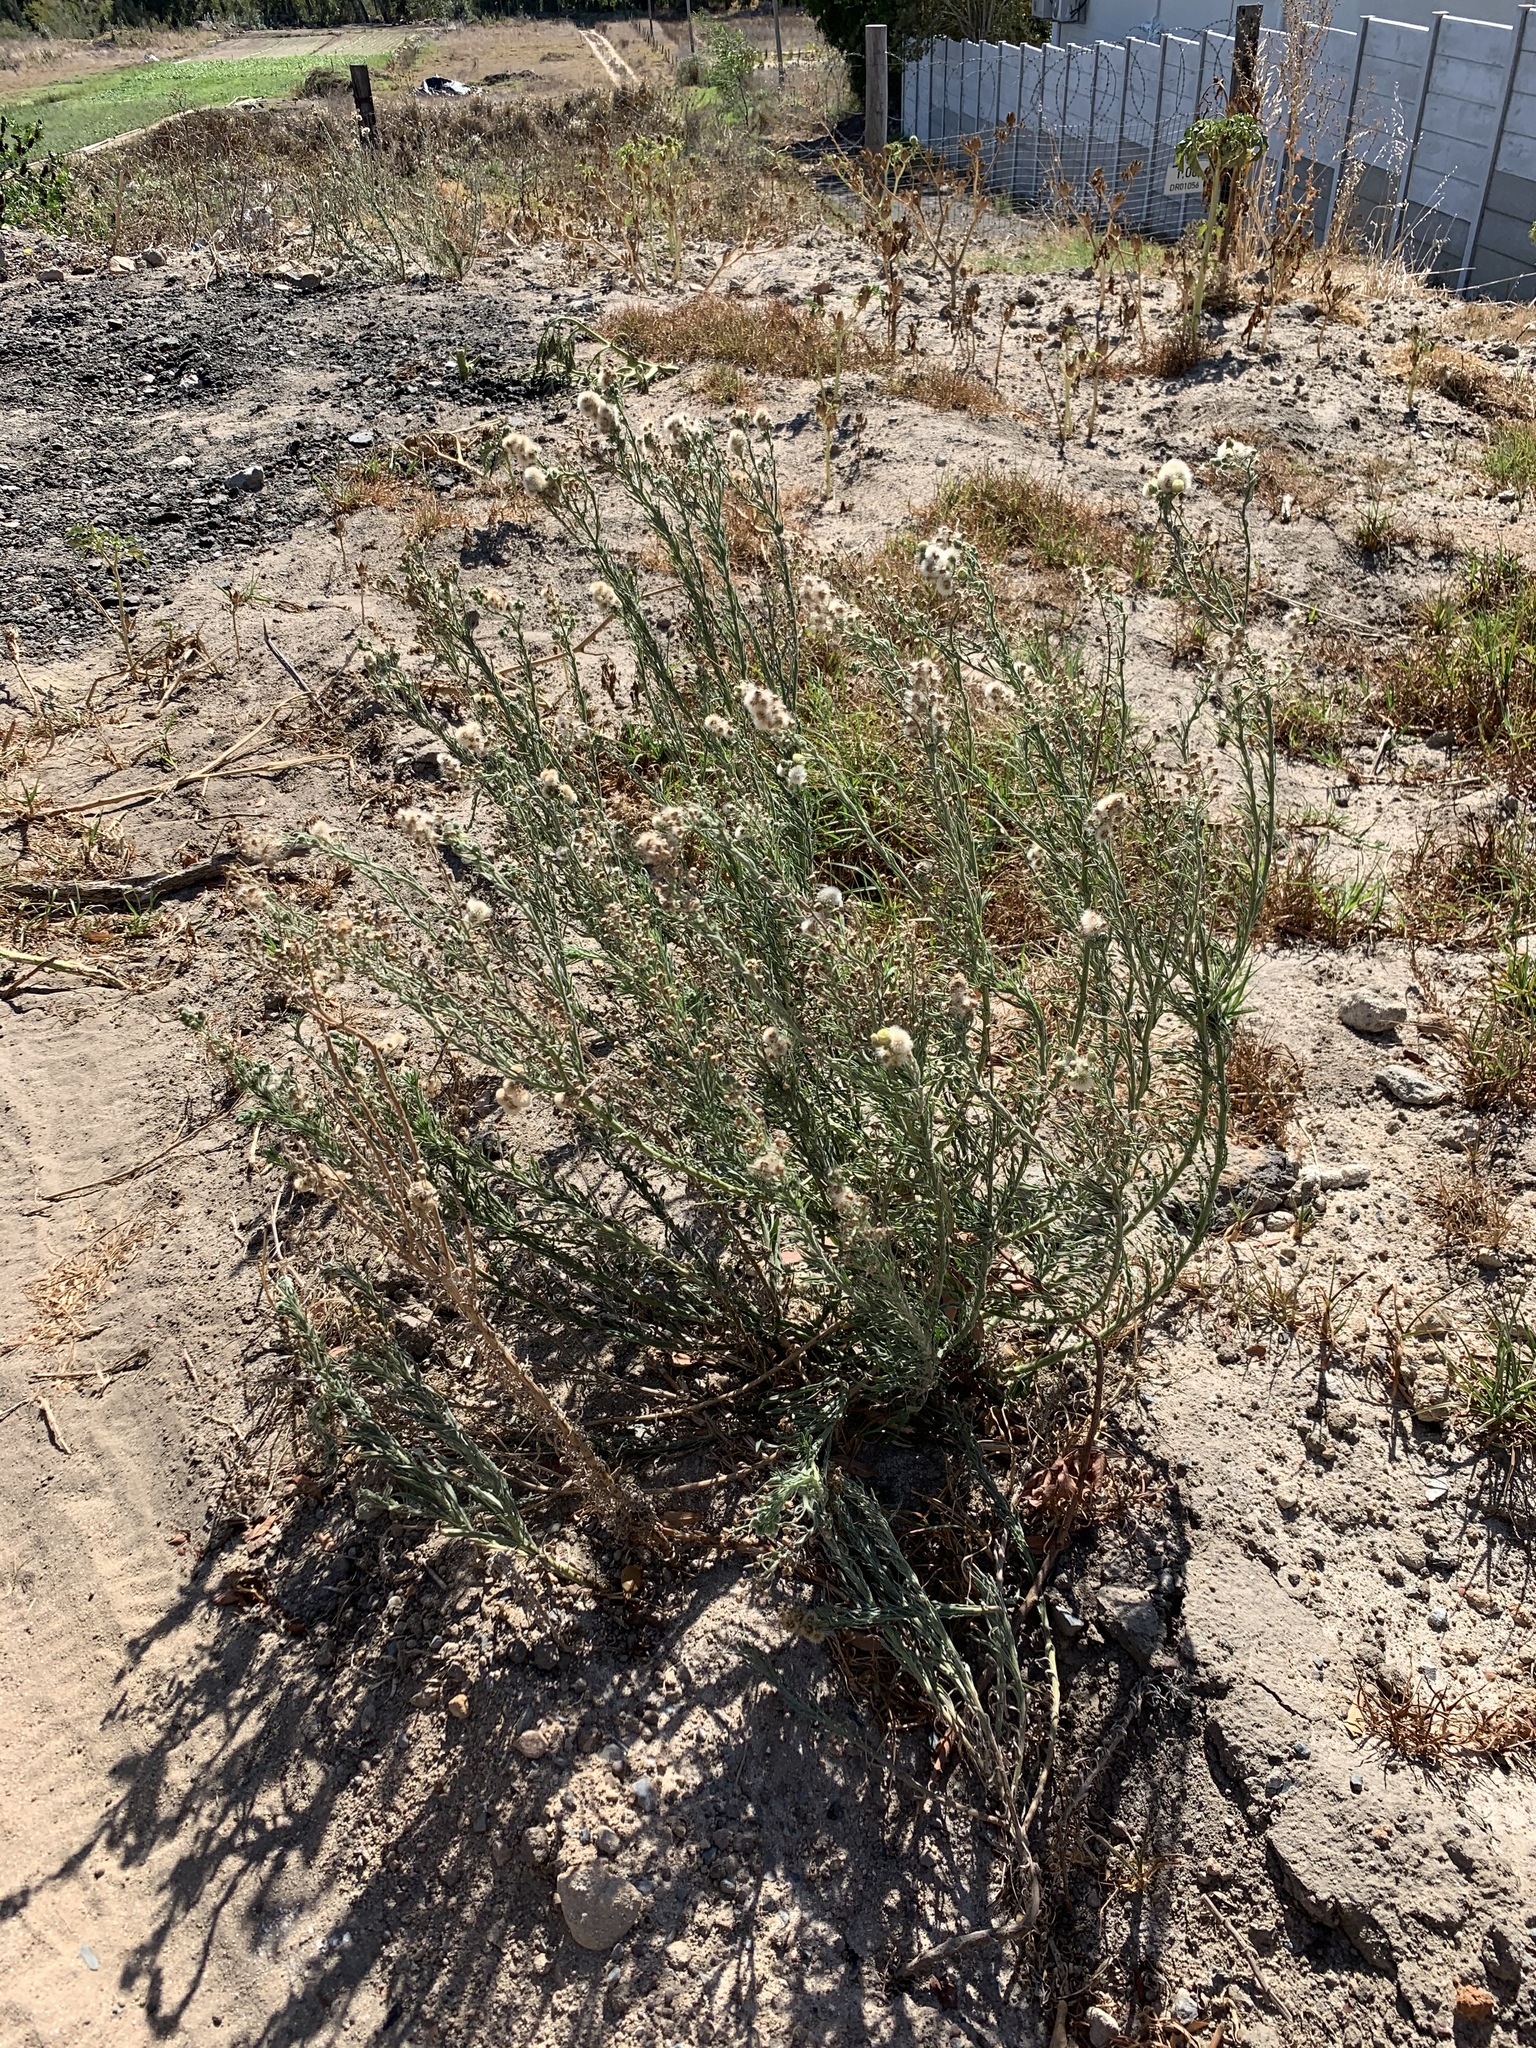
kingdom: Plantae
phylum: Tracheophyta
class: Magnoliopsida
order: Asterales
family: Asteraceae
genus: Erigeron
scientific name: Erigeron bonariensis
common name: Argentine fleabane
